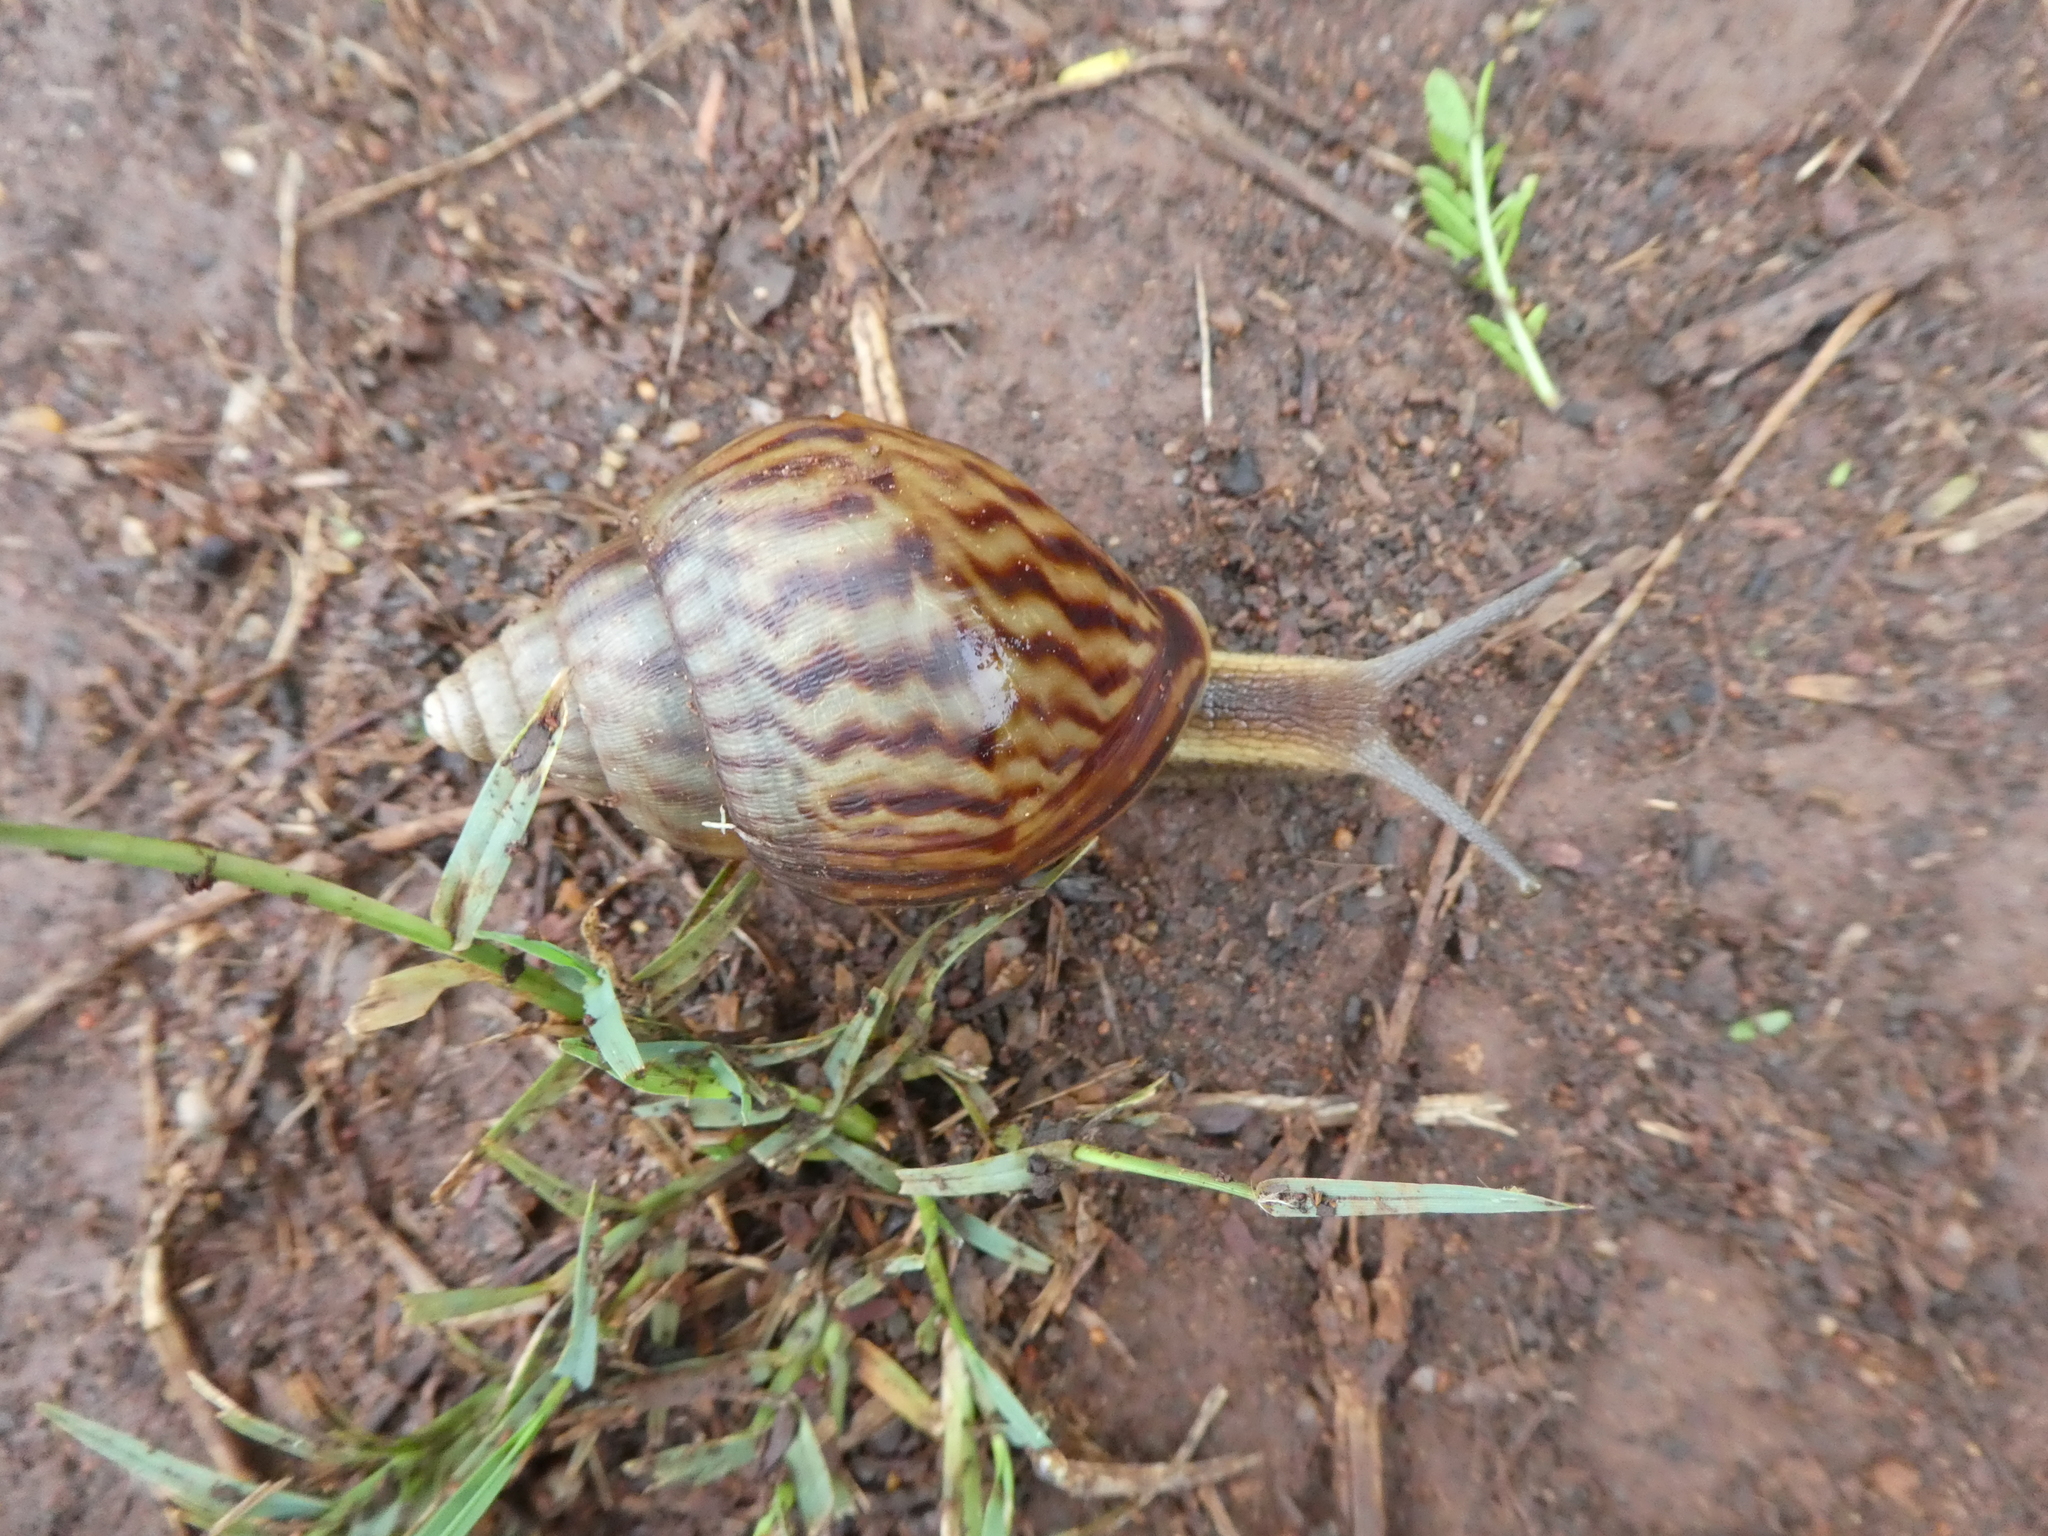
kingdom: Animalia
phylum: Mollusca
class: Gastropoda
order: Stylommatophora
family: Achatinidae
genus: Achatina
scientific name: Achatina schinziana
